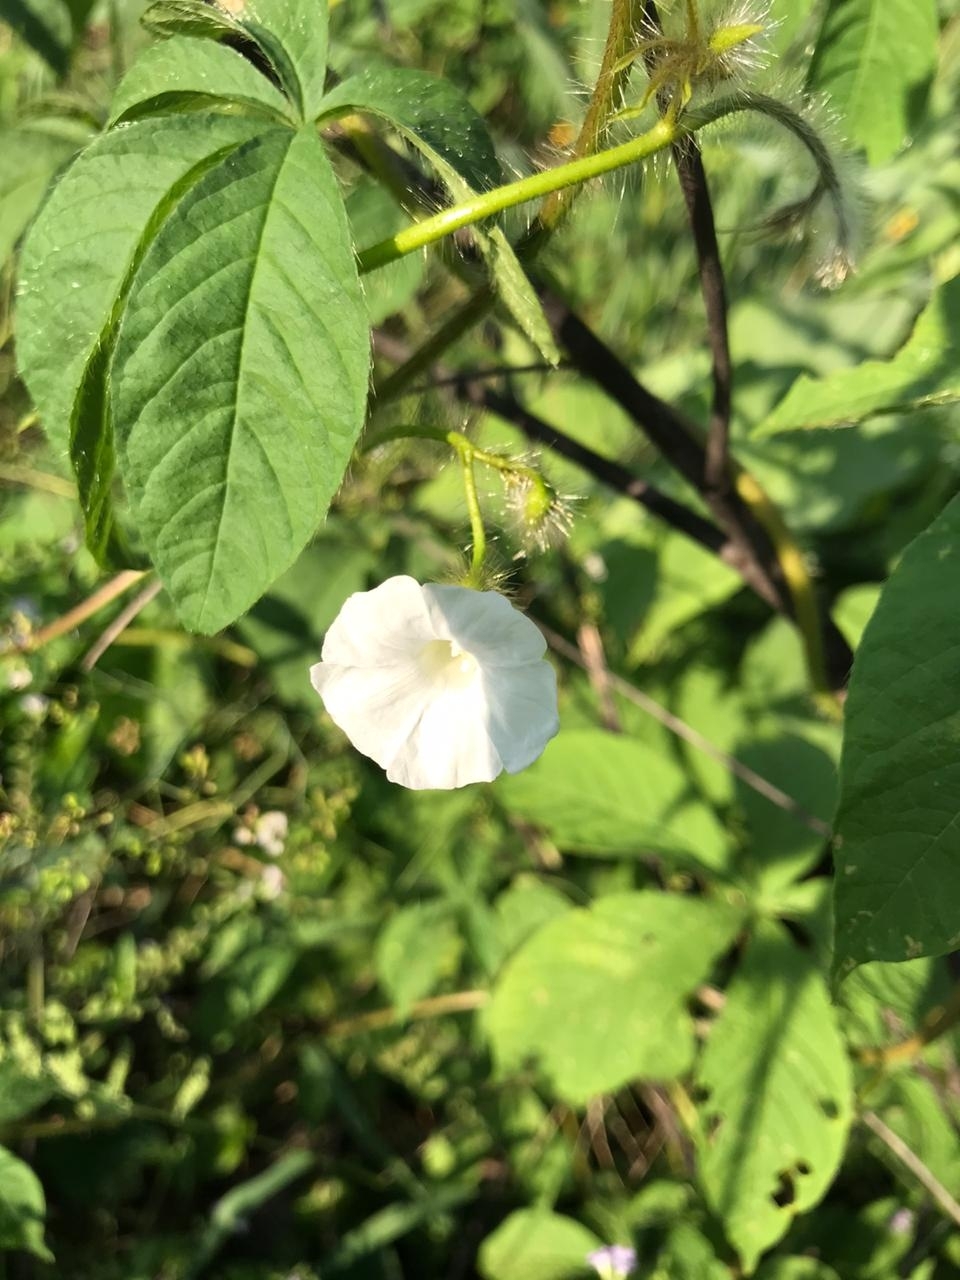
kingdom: Plantae
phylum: Tracheophyta
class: Magnoliopsida
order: Solanales
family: Convolvulaceae
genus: Distimake
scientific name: Distimake aegyptius
